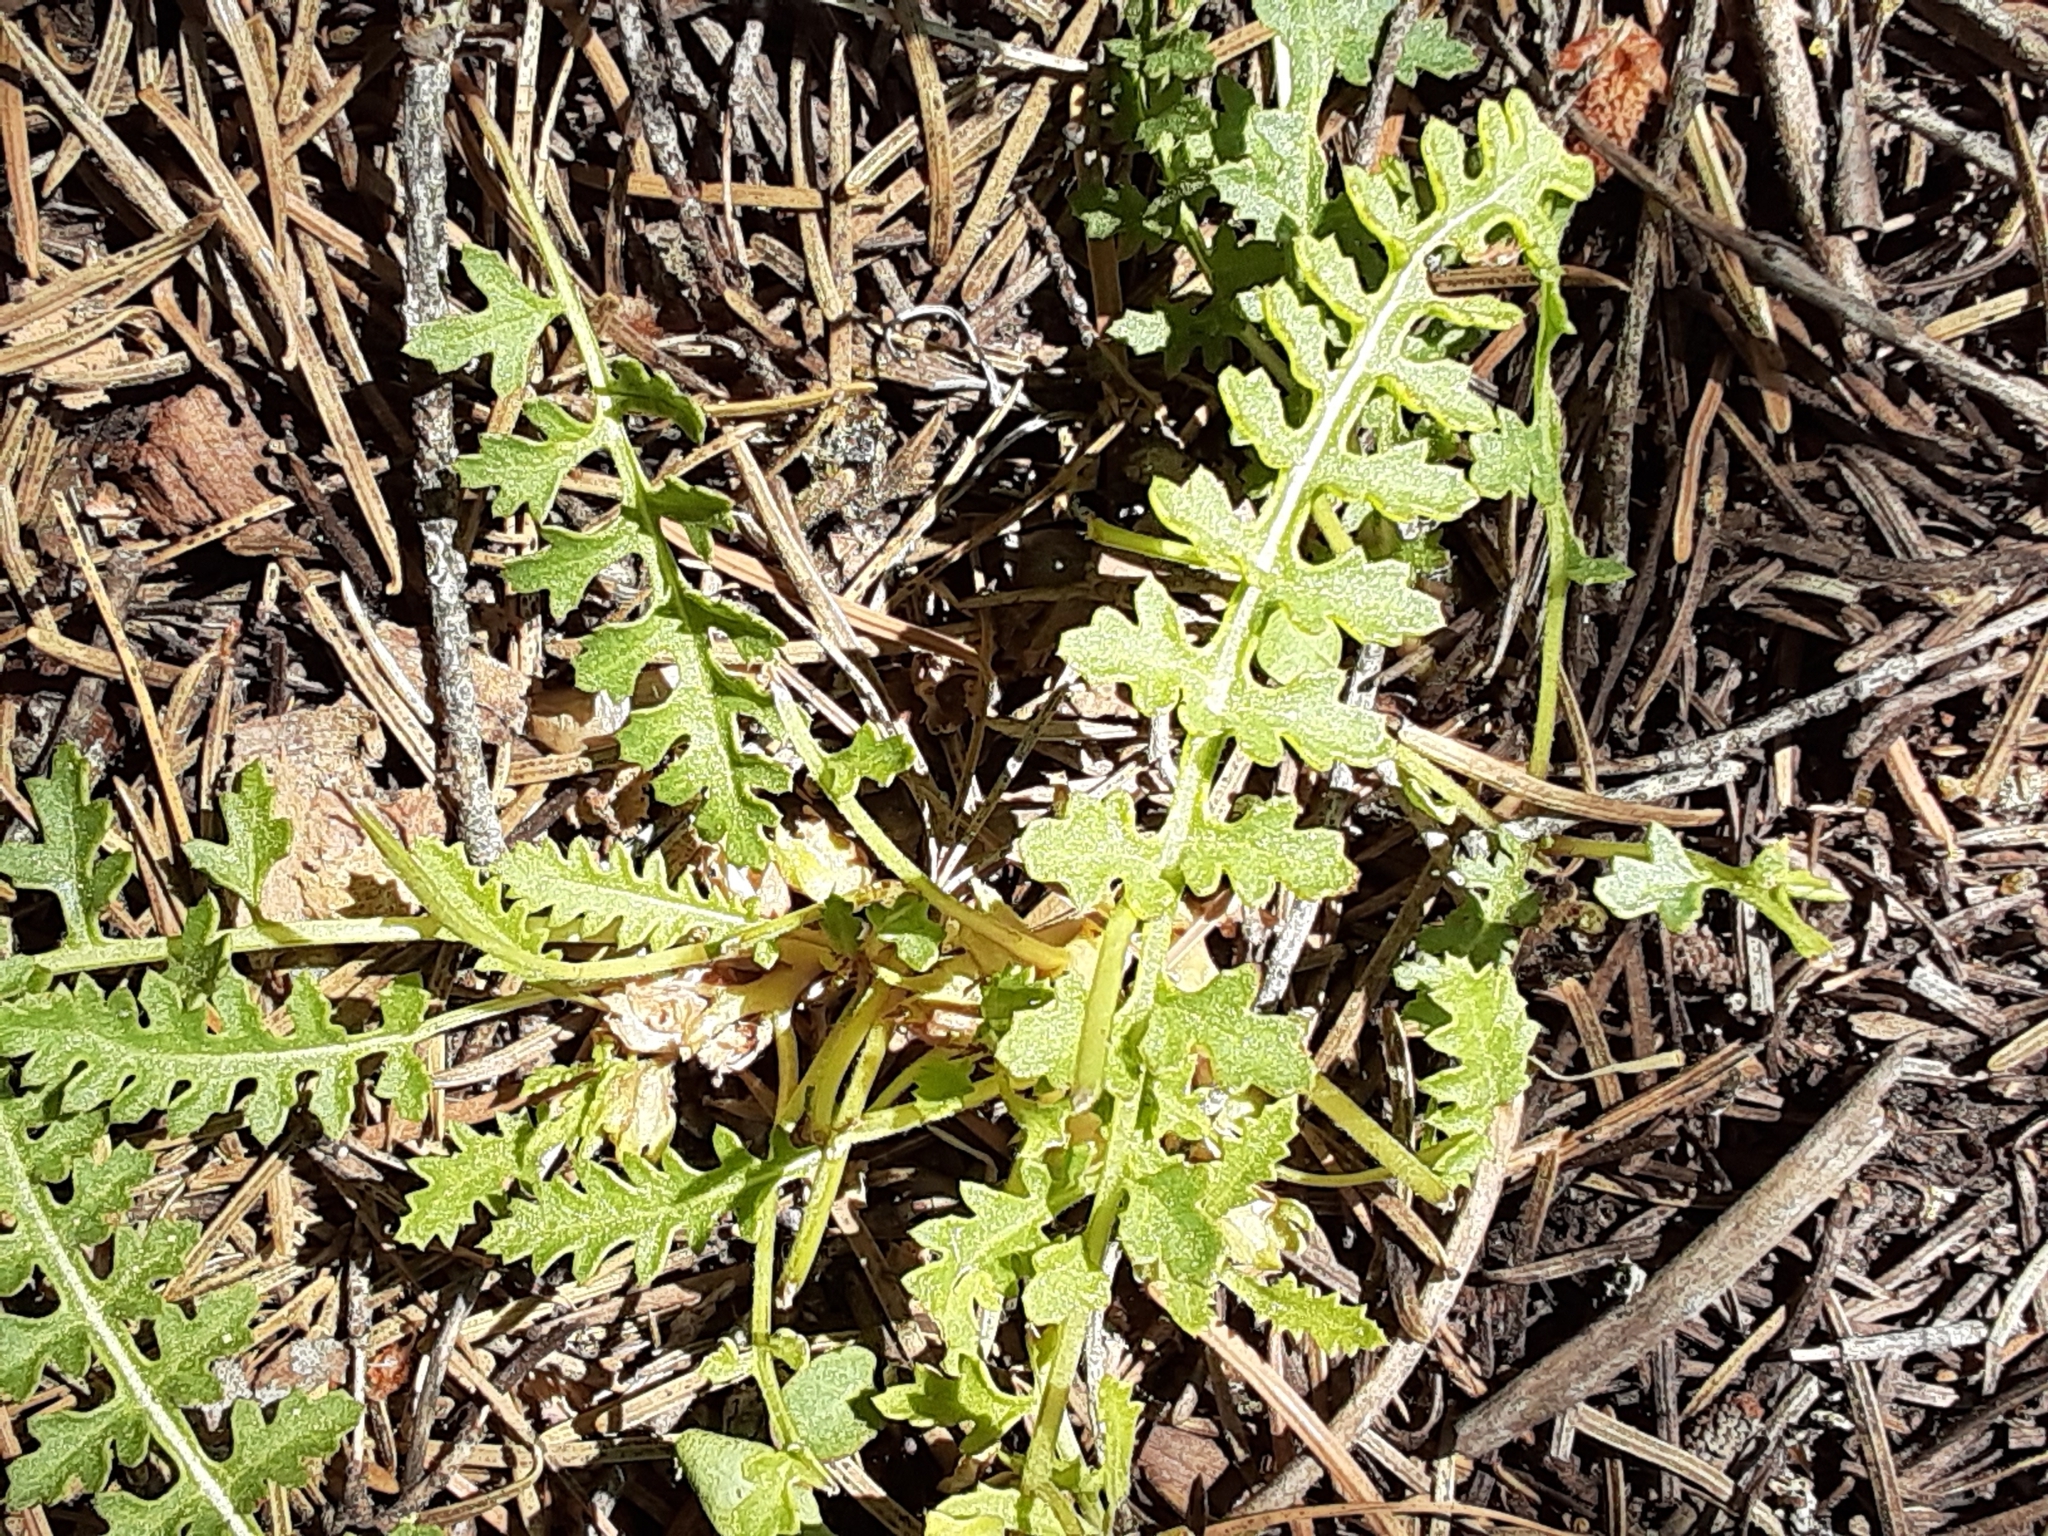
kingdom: Plantae
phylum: Tracheophyta
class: Magnoliopsida
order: Lamiales
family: Orobanchaceae
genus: Pedicularis
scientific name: Pedicularis semibarbata
